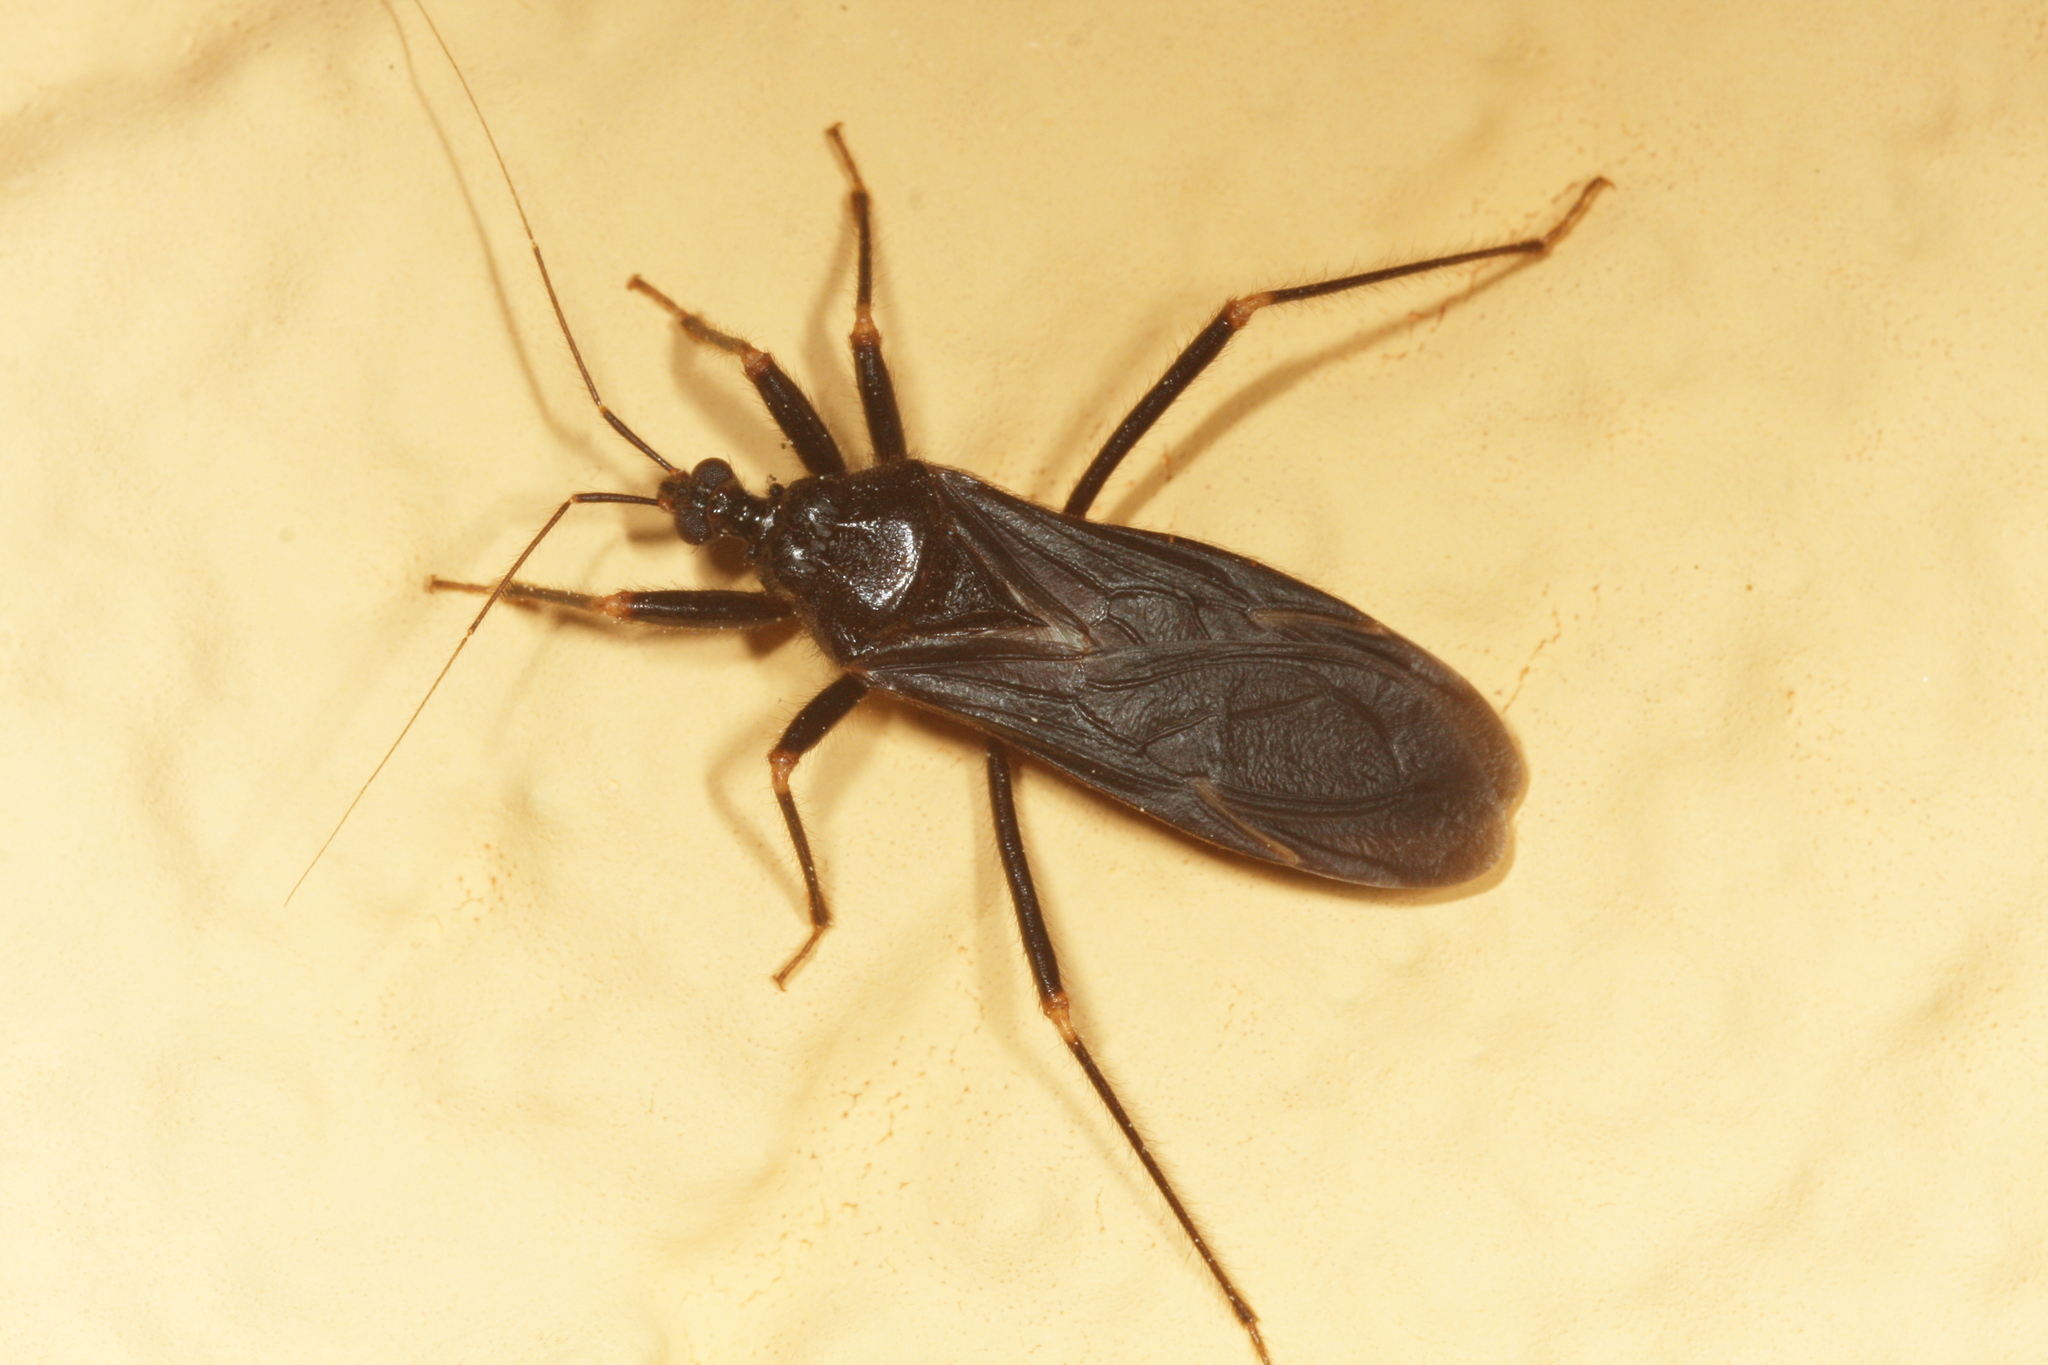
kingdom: Animalia
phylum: Arthropoda
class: Insecta
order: Hemiptera
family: Reduviidae
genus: Reduvius
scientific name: Reduvius personatus
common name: Masked hunter
